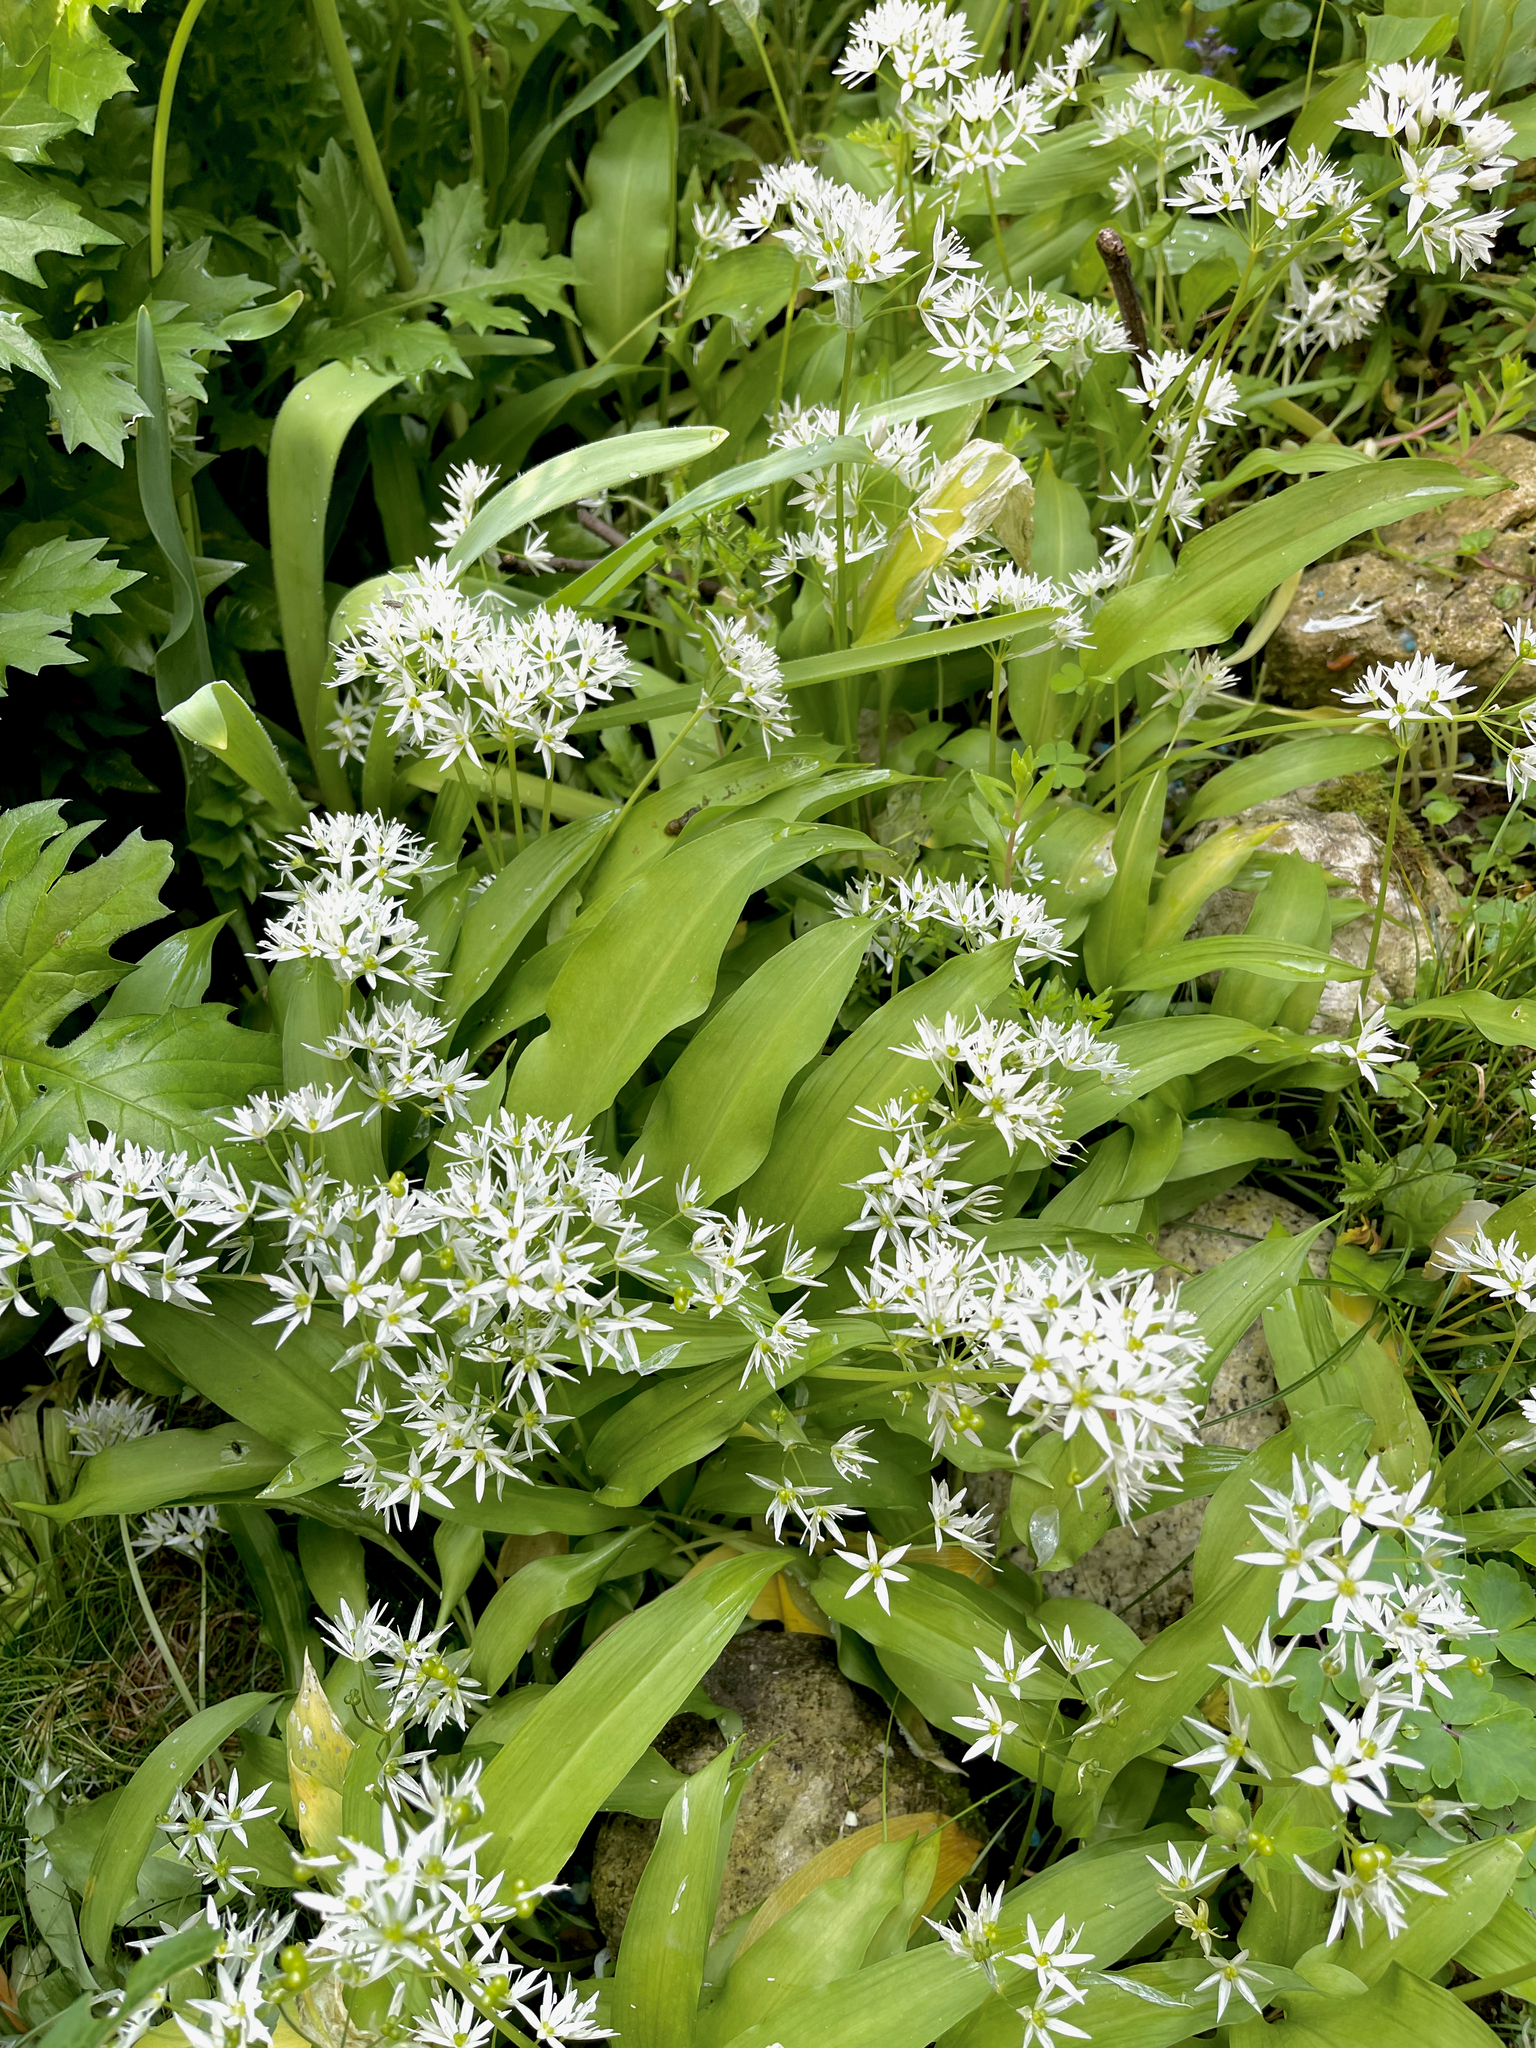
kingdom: Plantae
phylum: Tracheophyta
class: Liliopsida
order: Asparagales
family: Amaryllidaceae
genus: Allium
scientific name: Allium ursinum
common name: Ramsons
